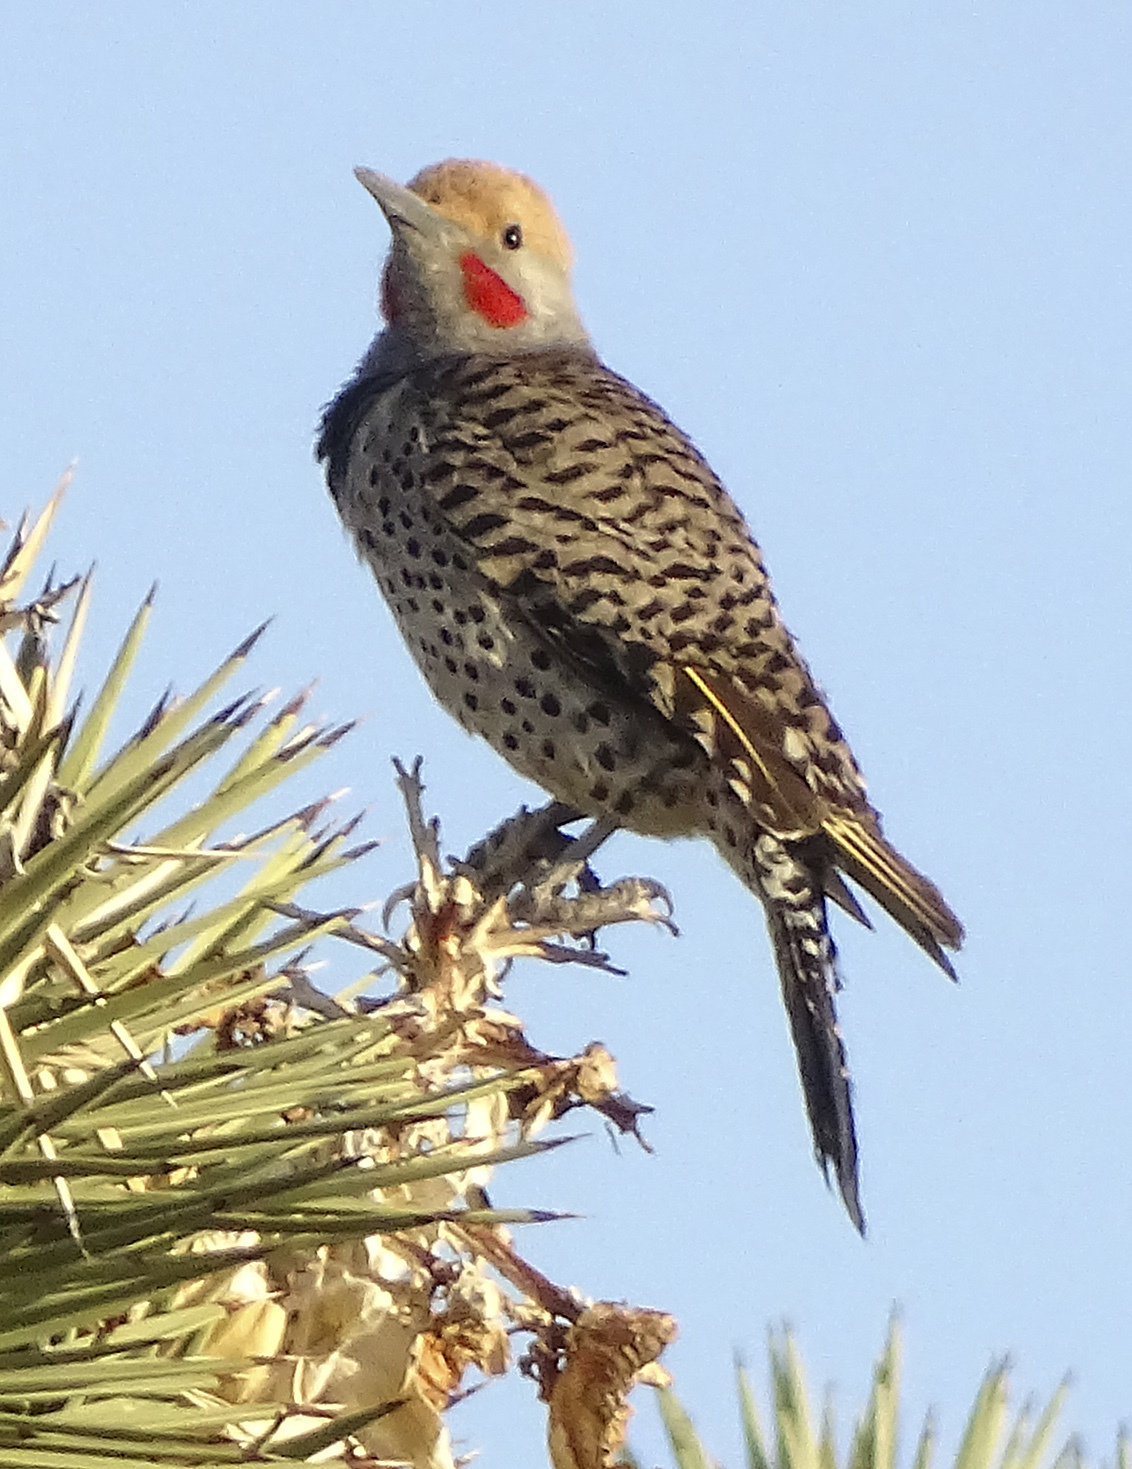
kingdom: Animalia
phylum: Chordata
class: Aves
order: Piciformes
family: Picidae
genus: Colaptes
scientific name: Colaptes chrysoides
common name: Gilded flicker
